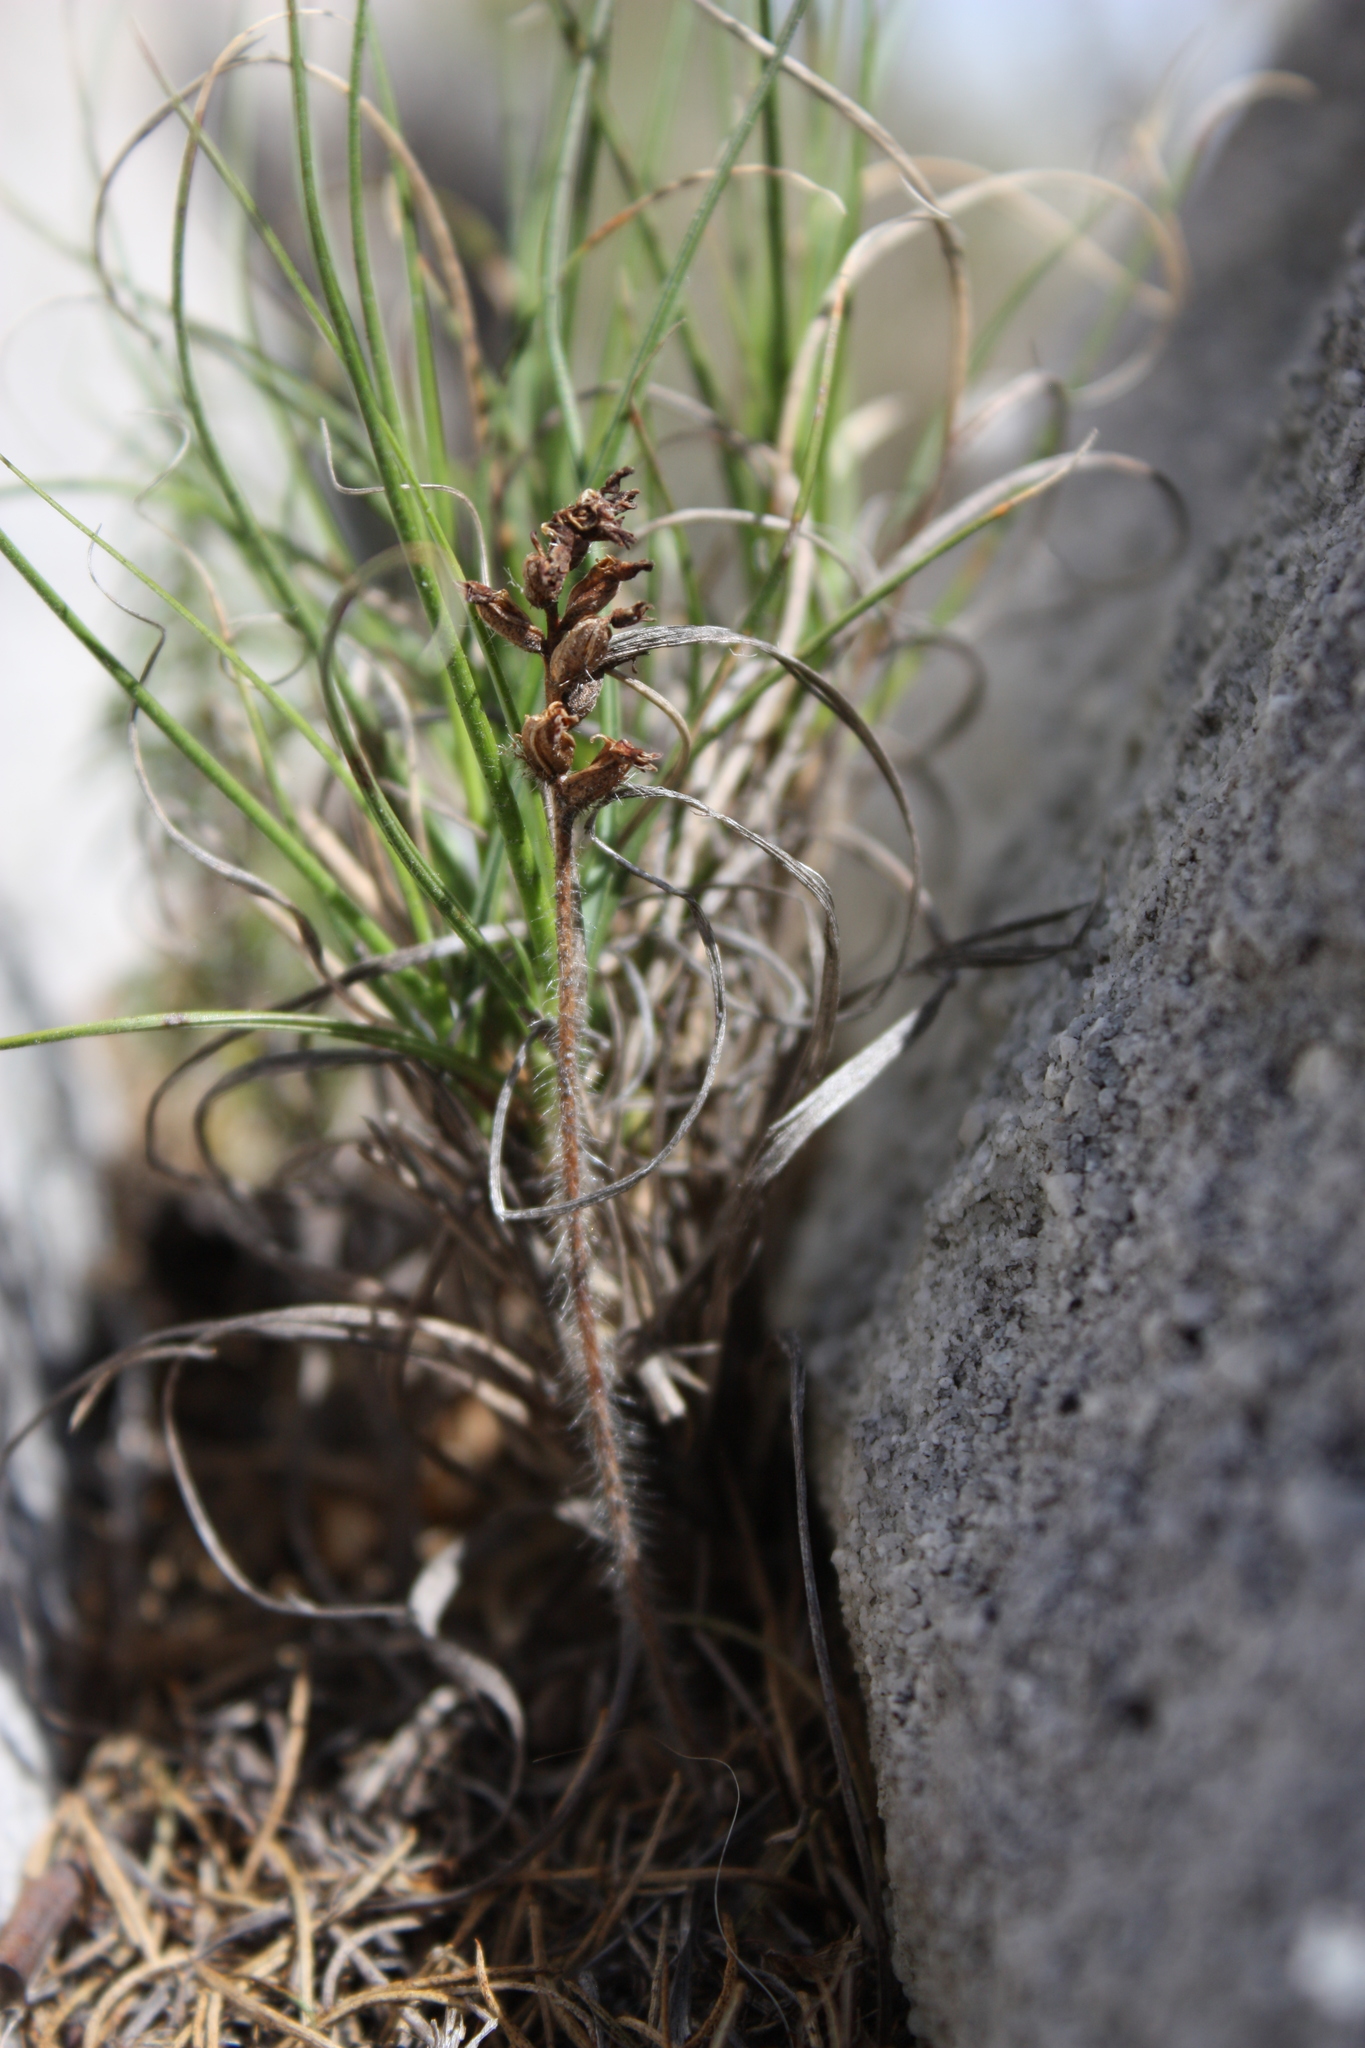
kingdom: Plantae
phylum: Tracheophyta
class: Liliopsida
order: Asparagales
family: Orchidaceae
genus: Holothrix
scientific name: Holothrix villosa
